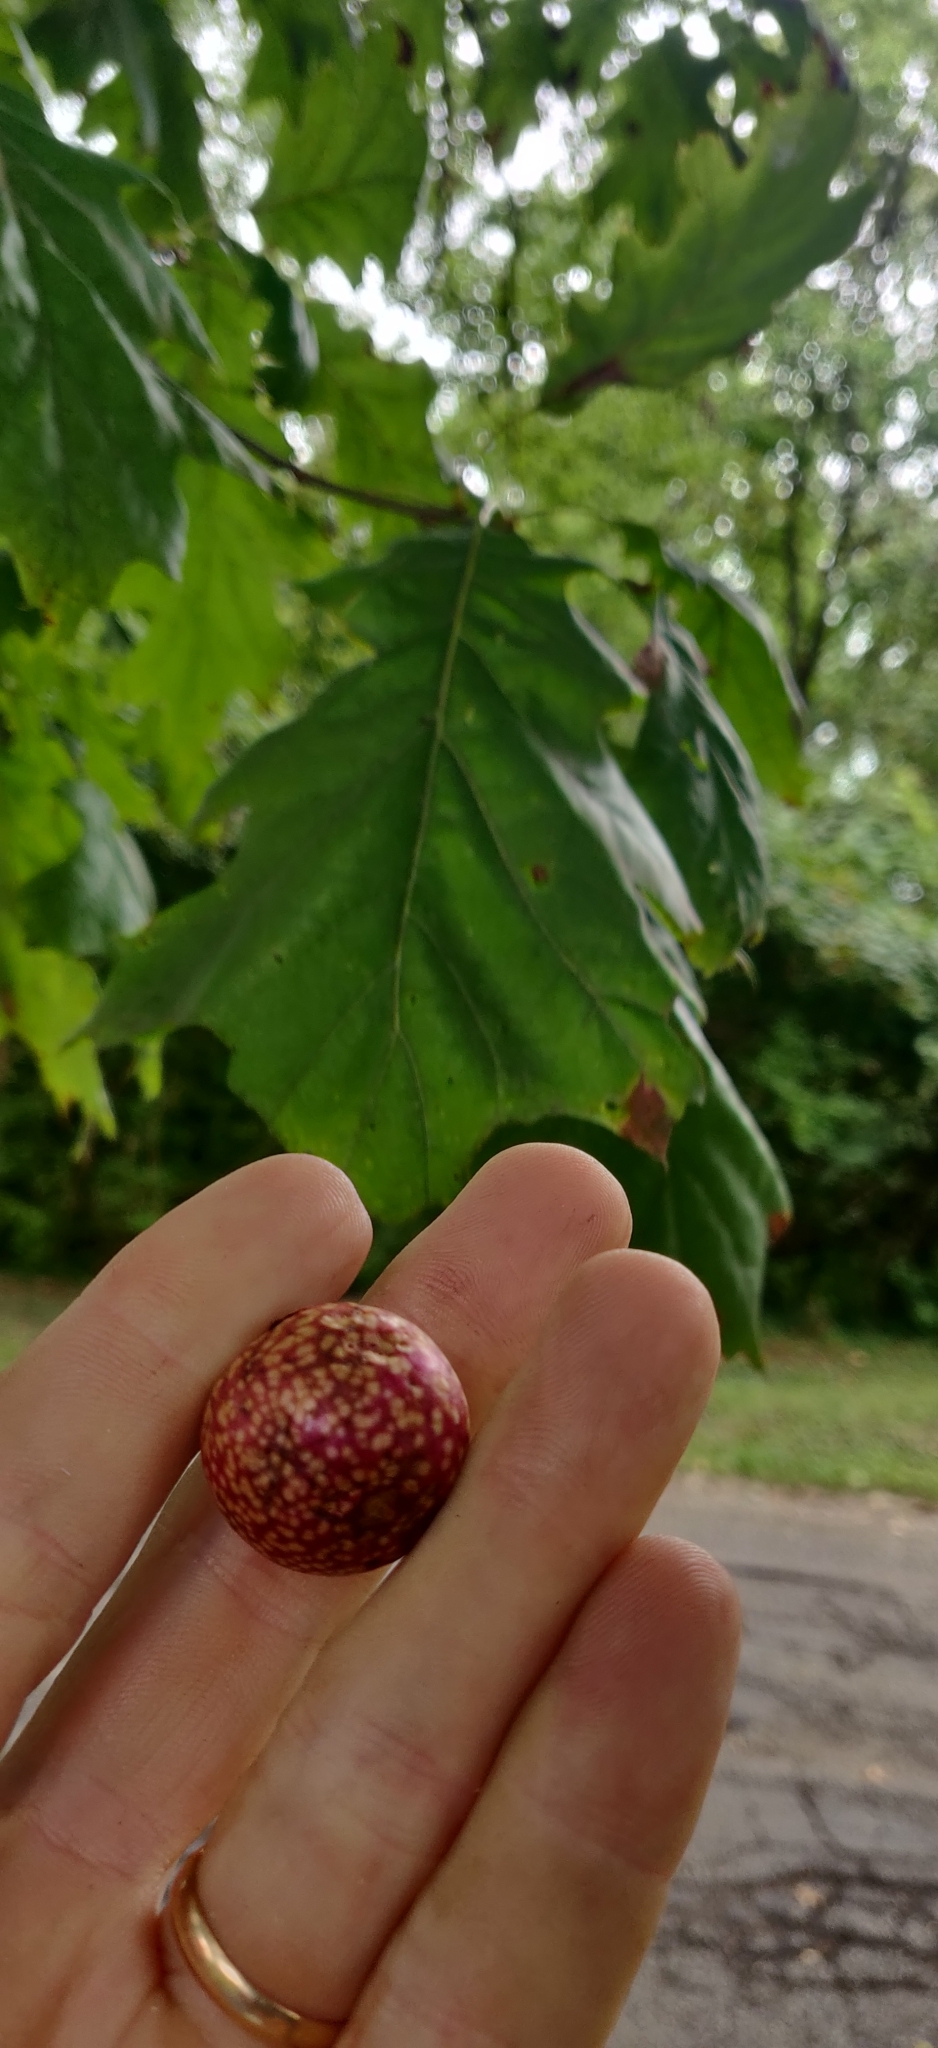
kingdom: Animalia
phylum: Arthropoda
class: Insecta
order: Hymenoptera
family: Cynipidae
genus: Amphibolips
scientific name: Amphibolips
